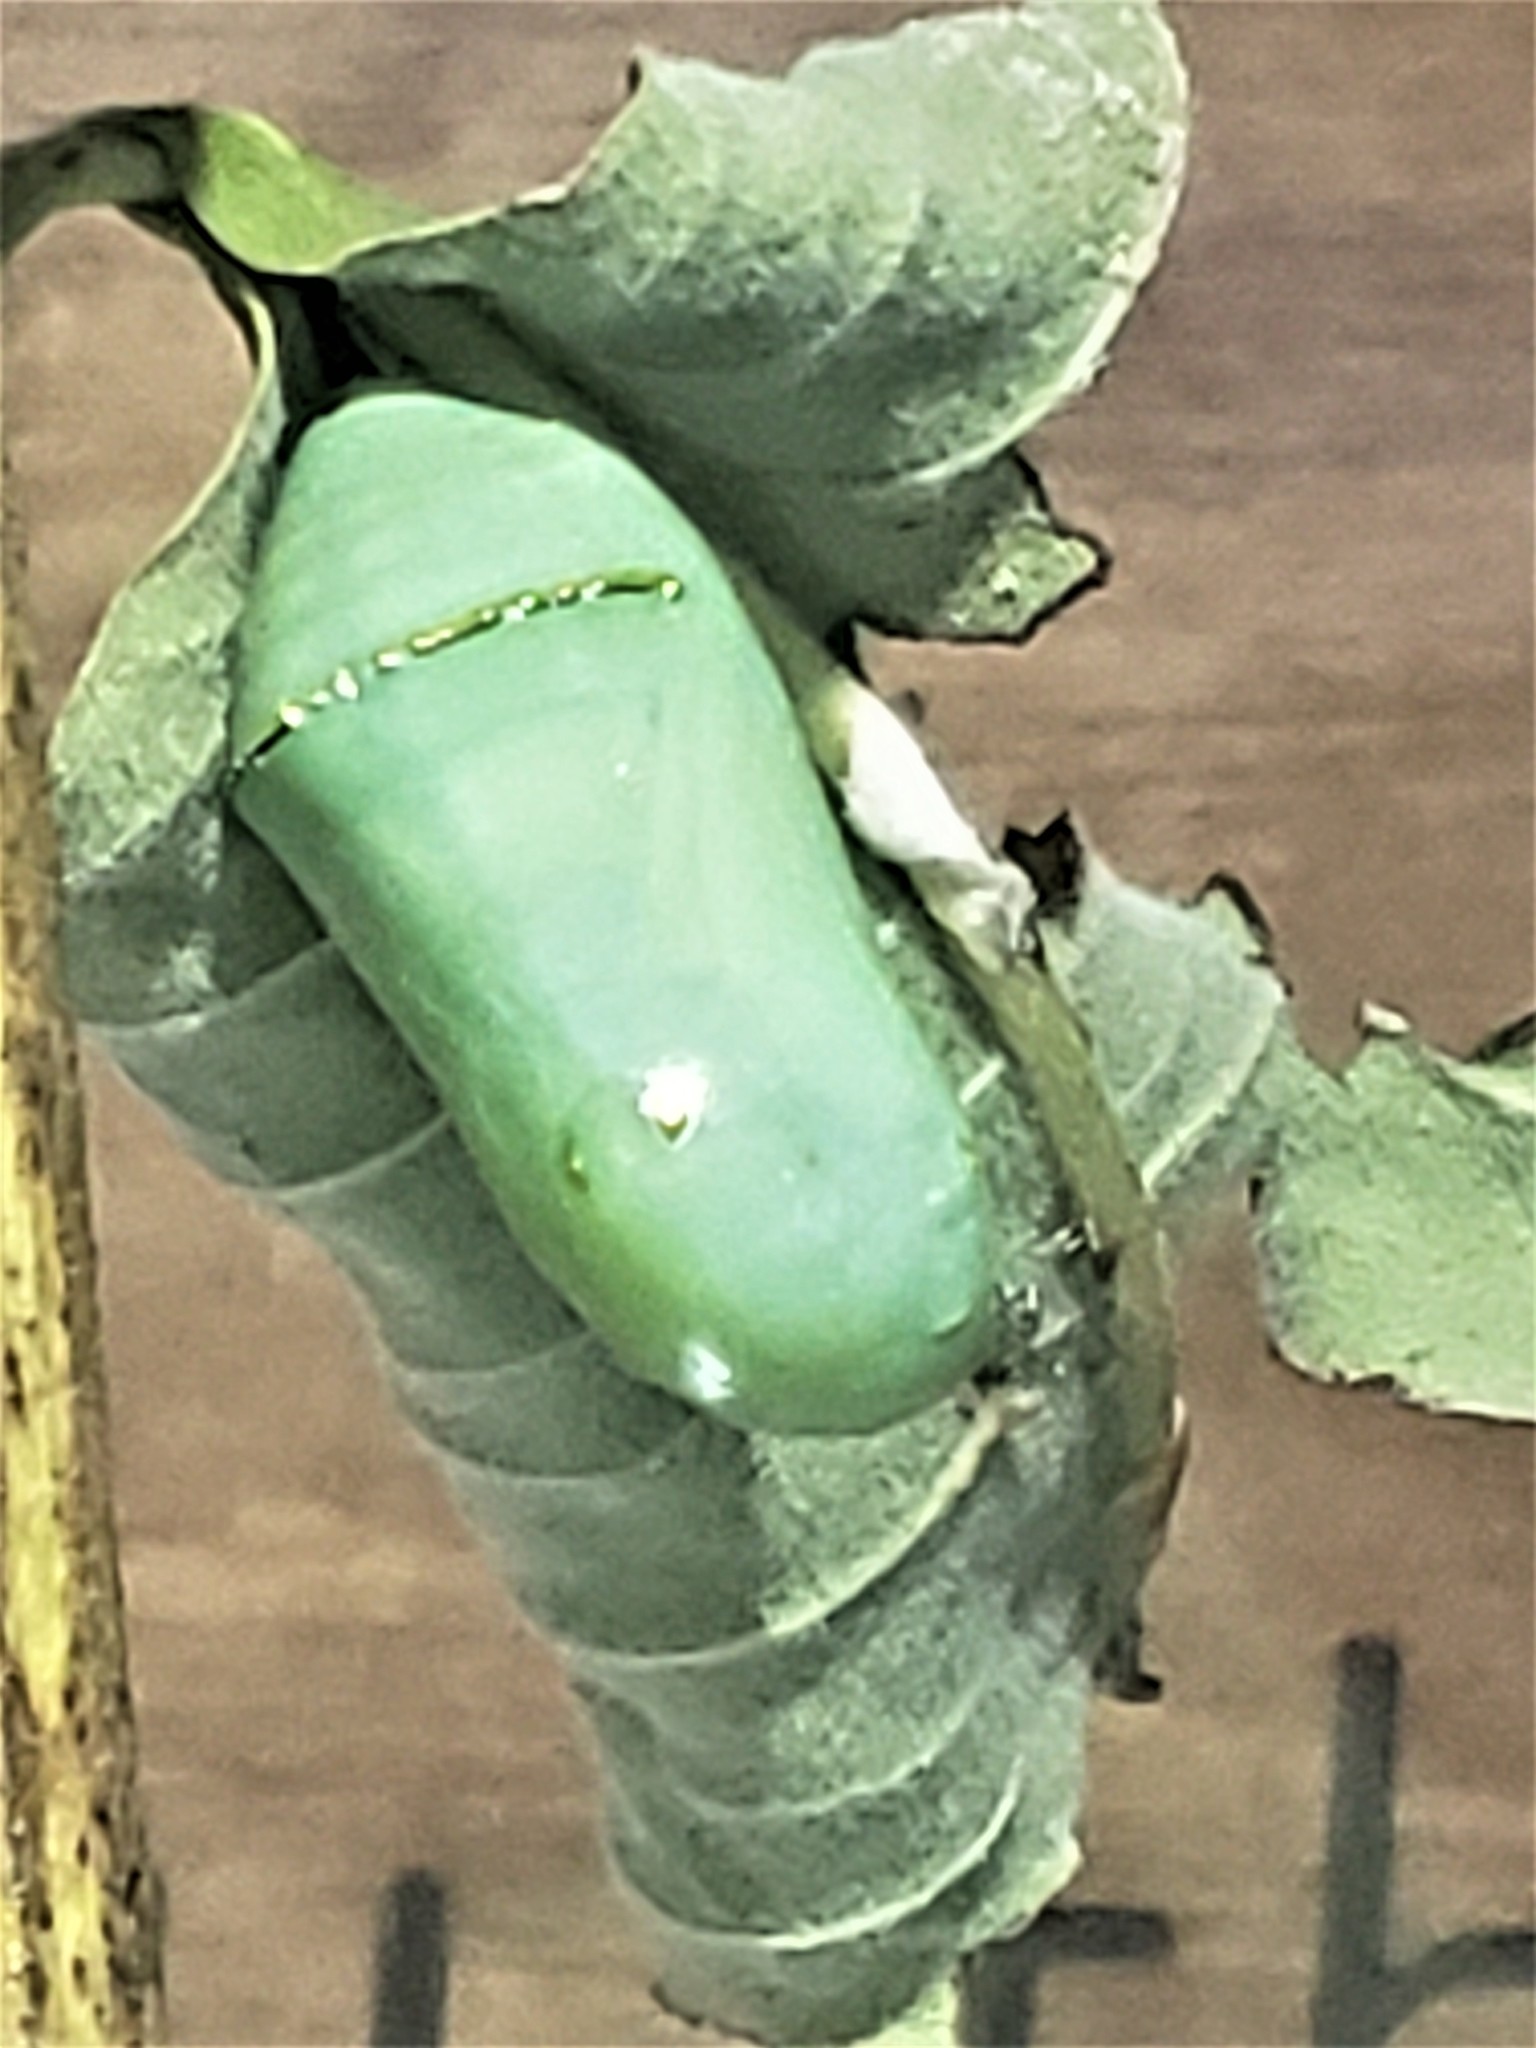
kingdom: Animalia
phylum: Arthropoda
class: Insecta
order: Lepidoptera
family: Nymphalidae
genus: Danaus
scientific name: Danaus plexippus
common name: Monarch
